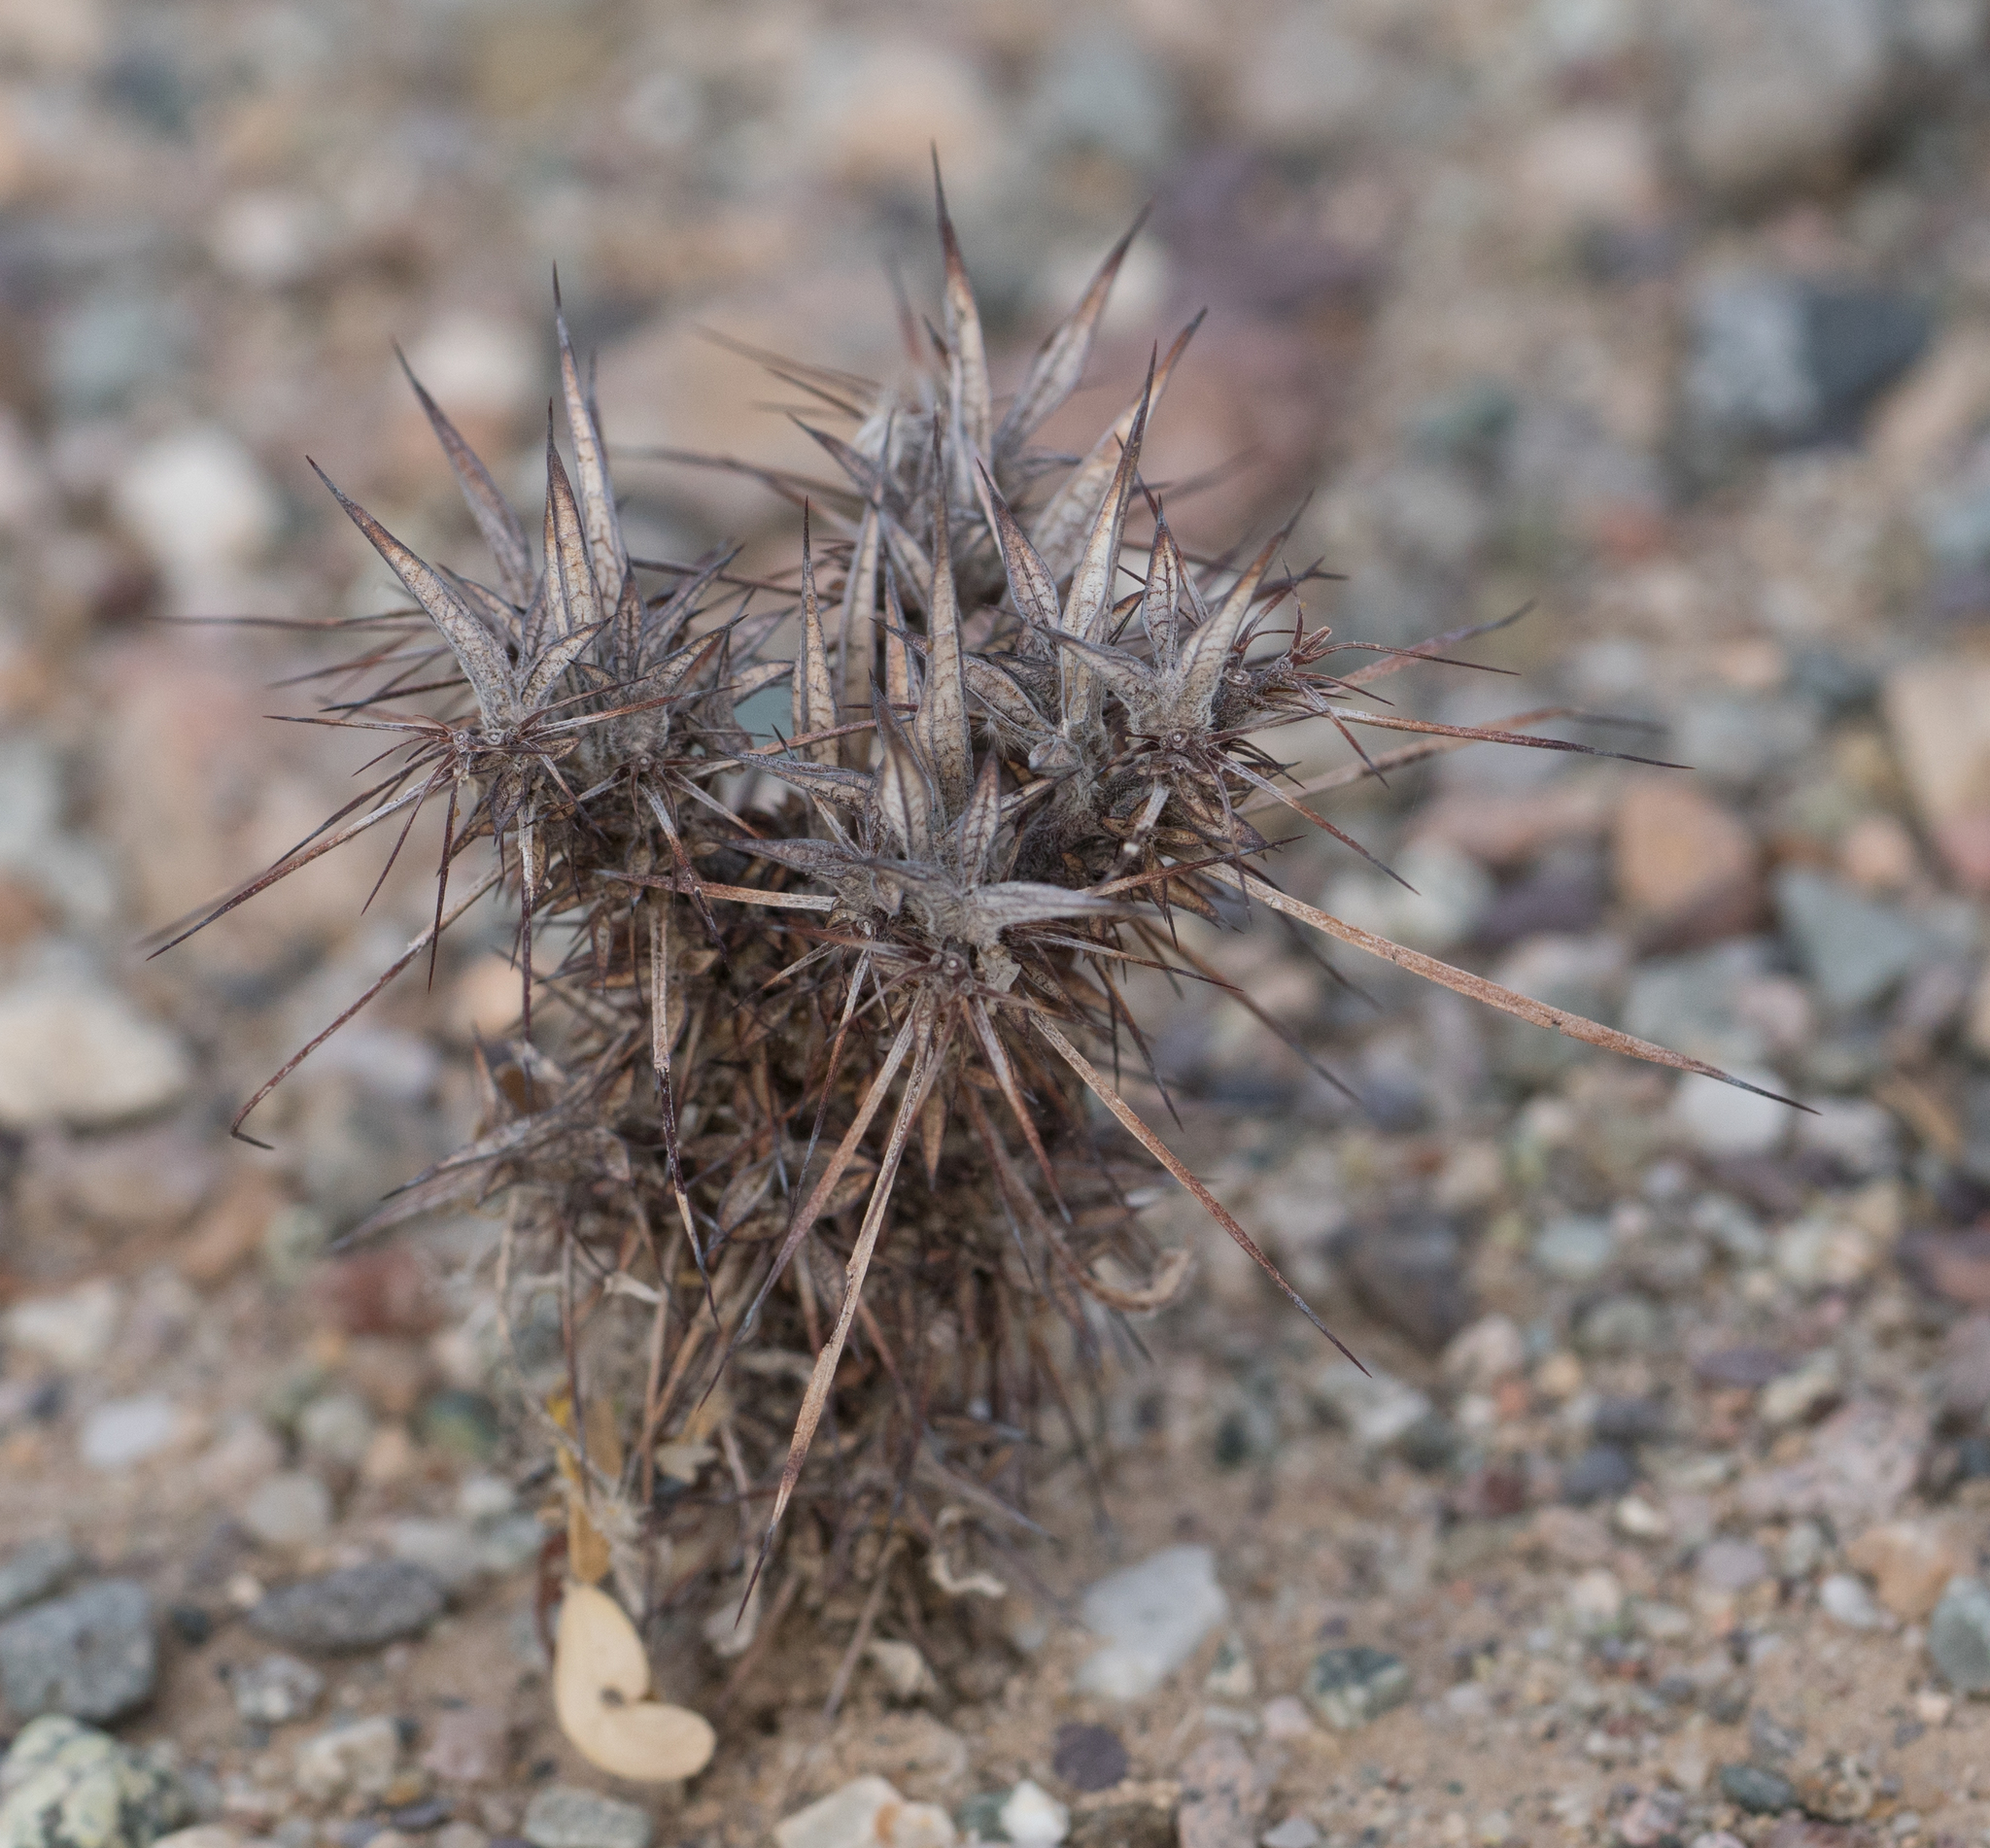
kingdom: Plantae
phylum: Tracheophyta
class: Magnoliopsida
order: Caryophyllales
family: Polygonaceae
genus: Chorizanthe
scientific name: Chorizanthe rigida
